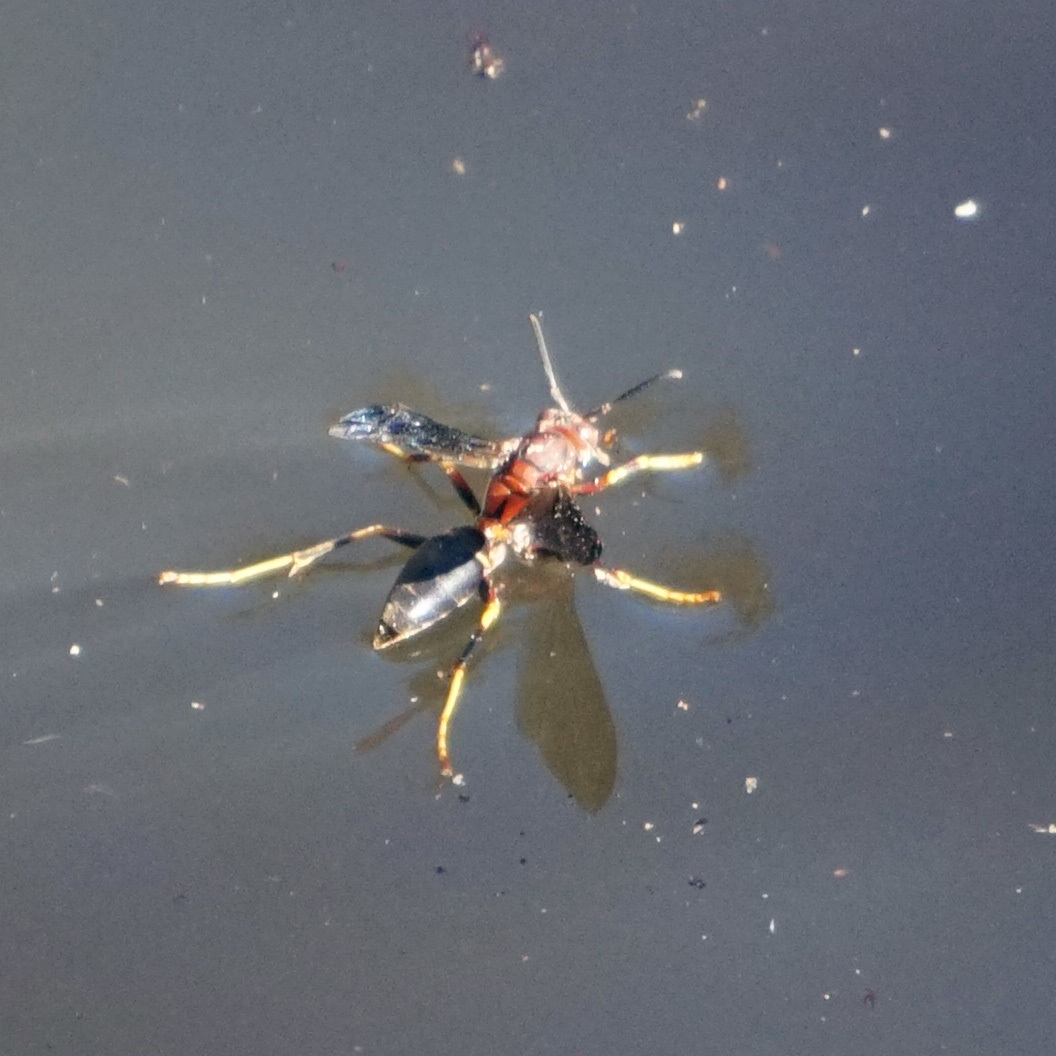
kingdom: Animalia
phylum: Arthropoda
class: Insecta
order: Hymenoptera
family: Eumenidae
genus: Polistes
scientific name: Polistes metricus
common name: Metric paper wasp
